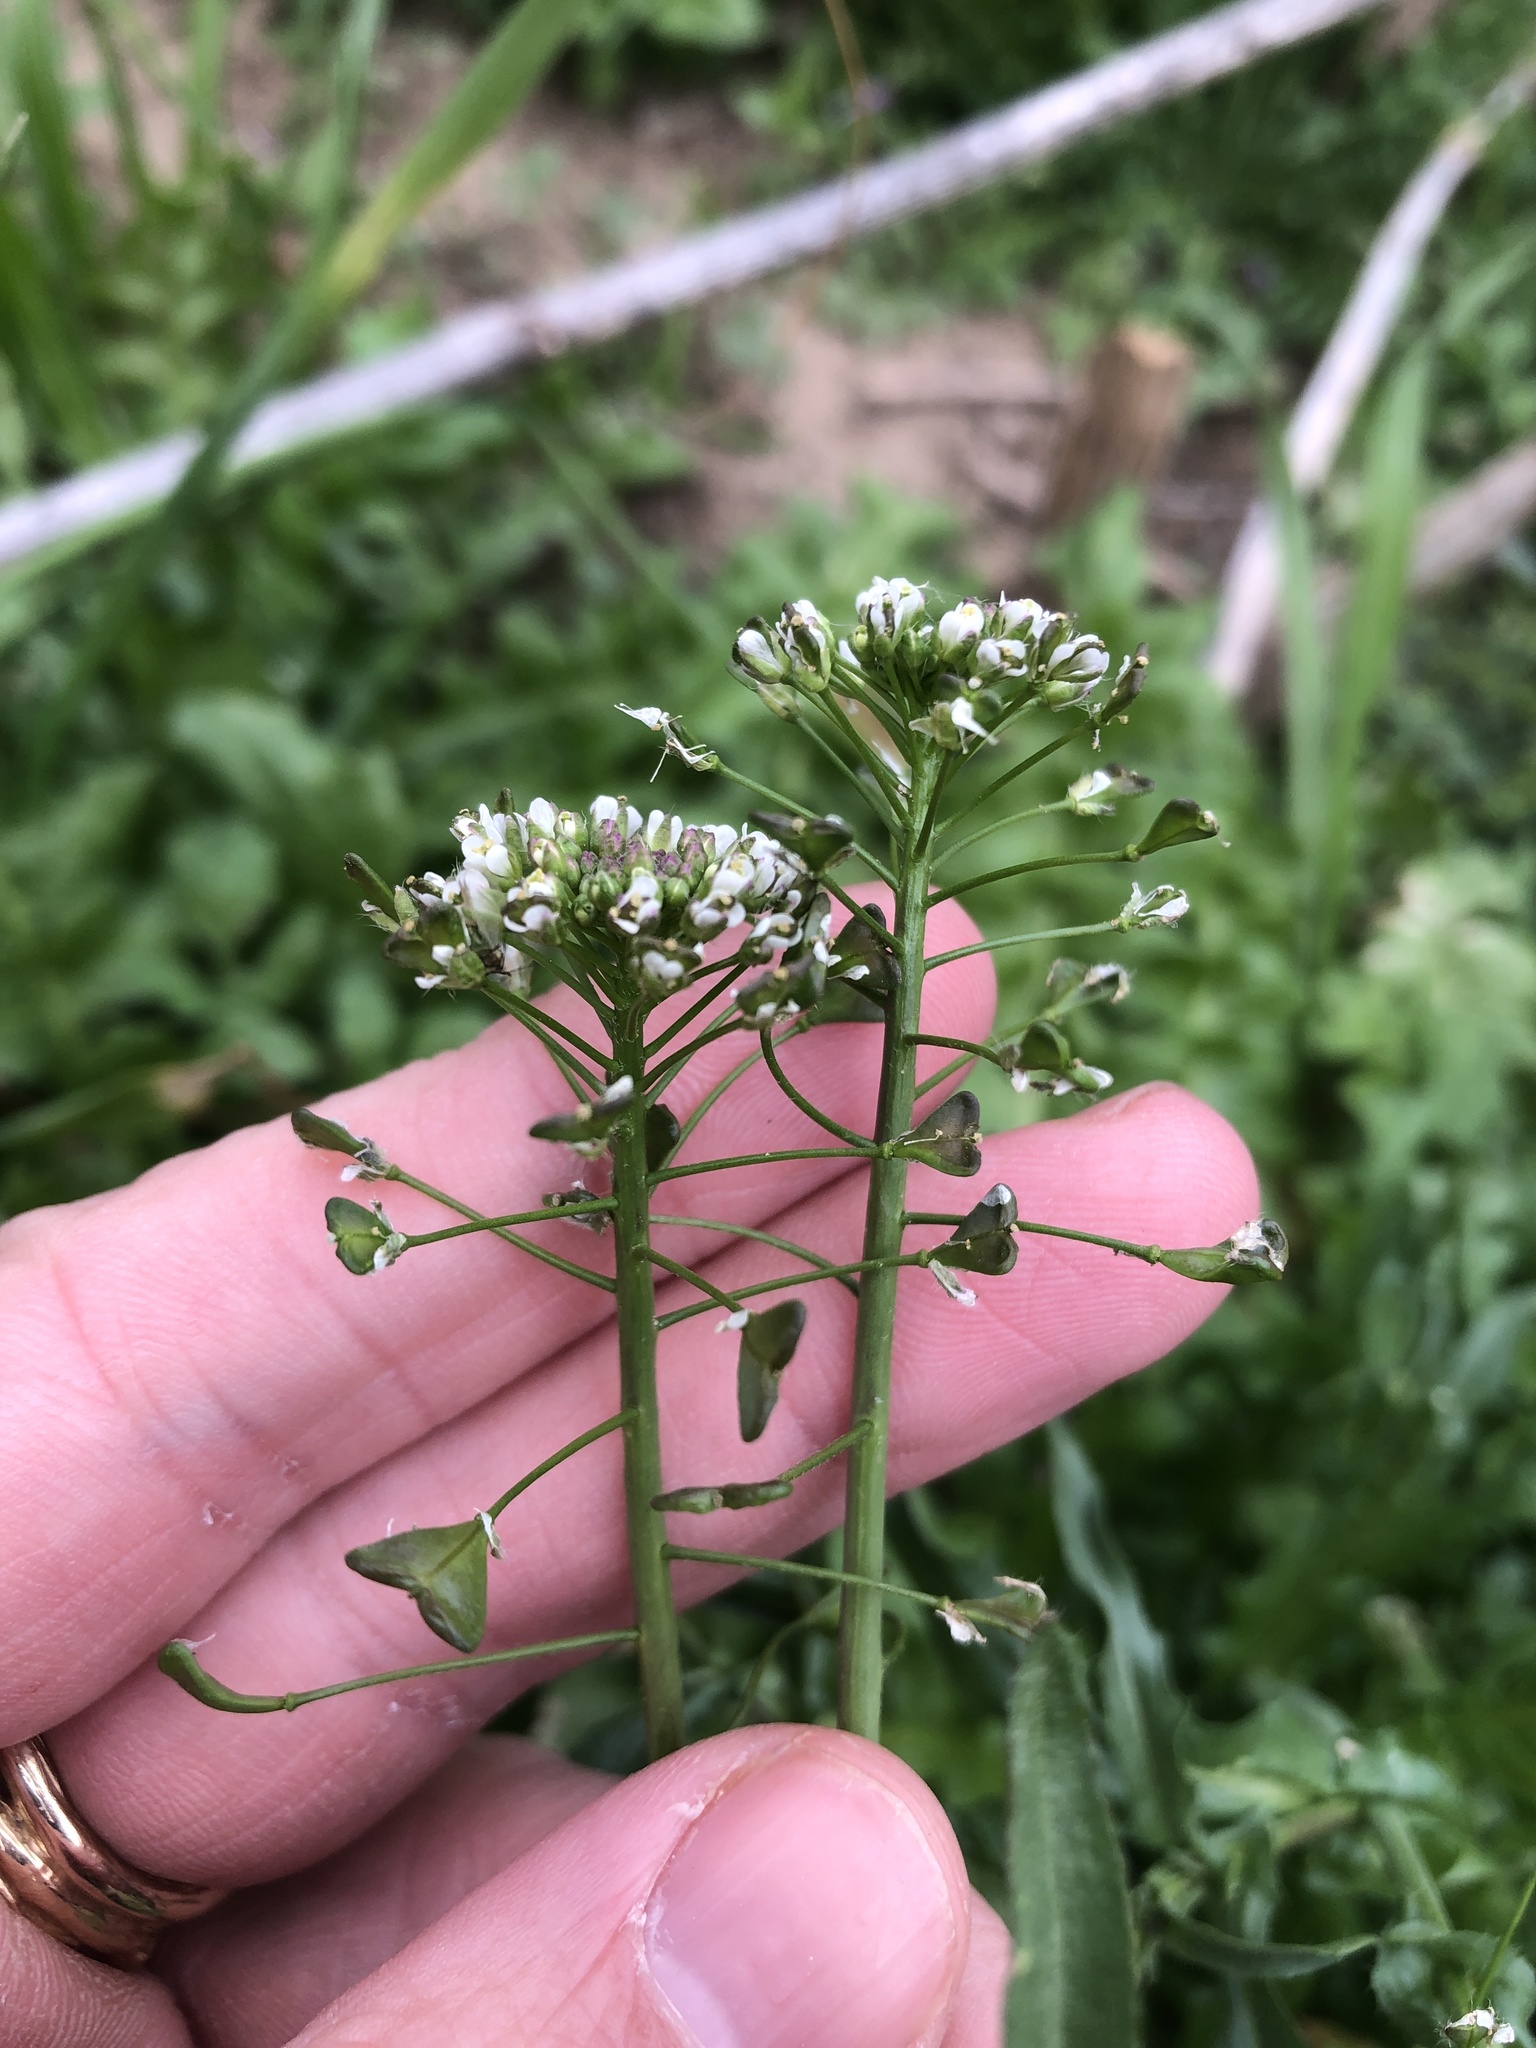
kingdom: Plantae
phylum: Tracheophyta
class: Magnoliopsida
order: Brassicales
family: Brassicaceae
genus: Capsella
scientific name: Capsella bursa-pastoris
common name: Shepherd's purse
